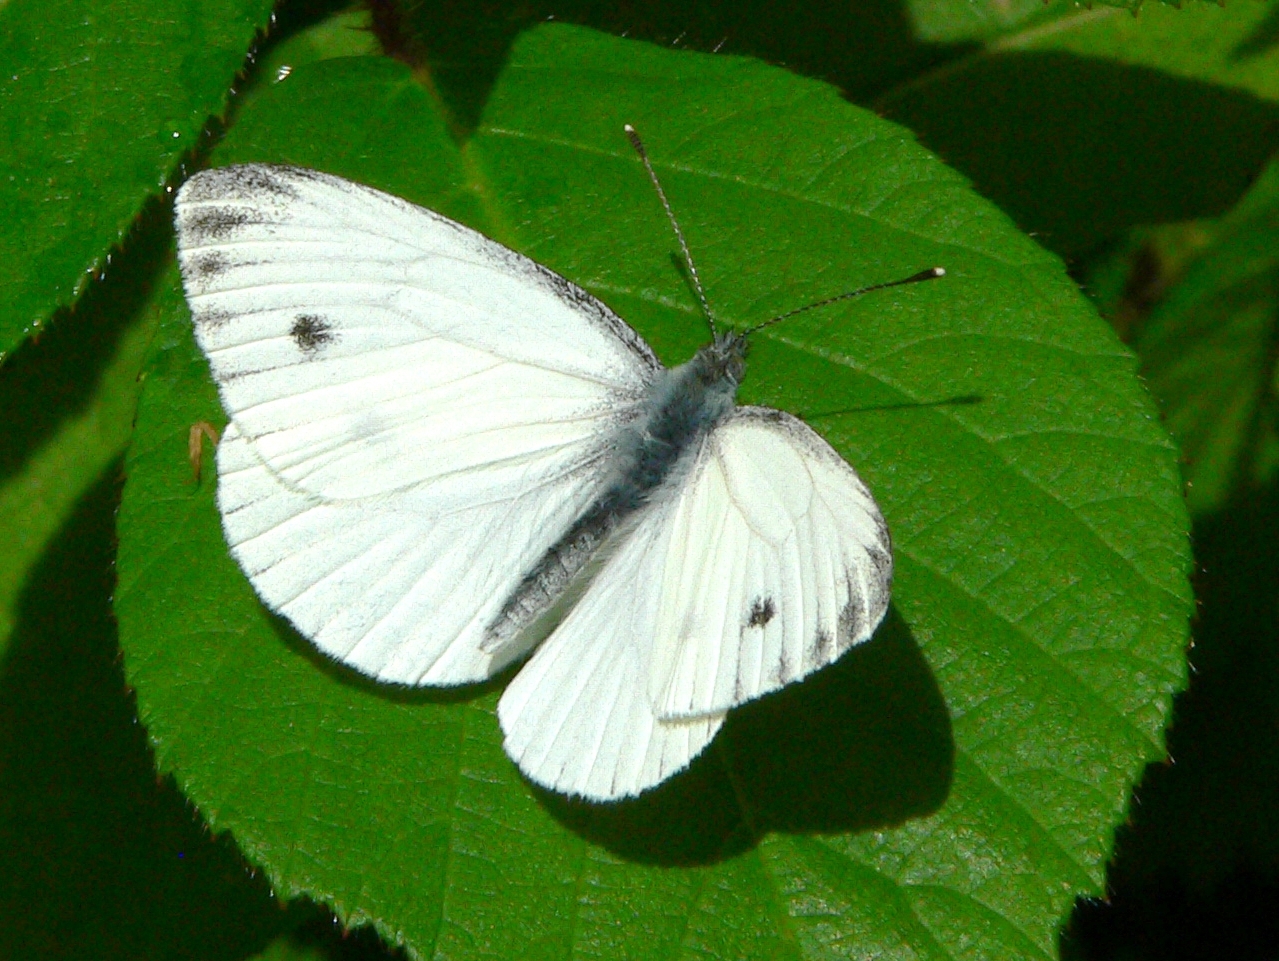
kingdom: Animalia
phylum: Arthropoda
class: Insecta
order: Lepidoptera
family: Pieridae
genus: Pieris
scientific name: Pieris napi
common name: Green-veined white
